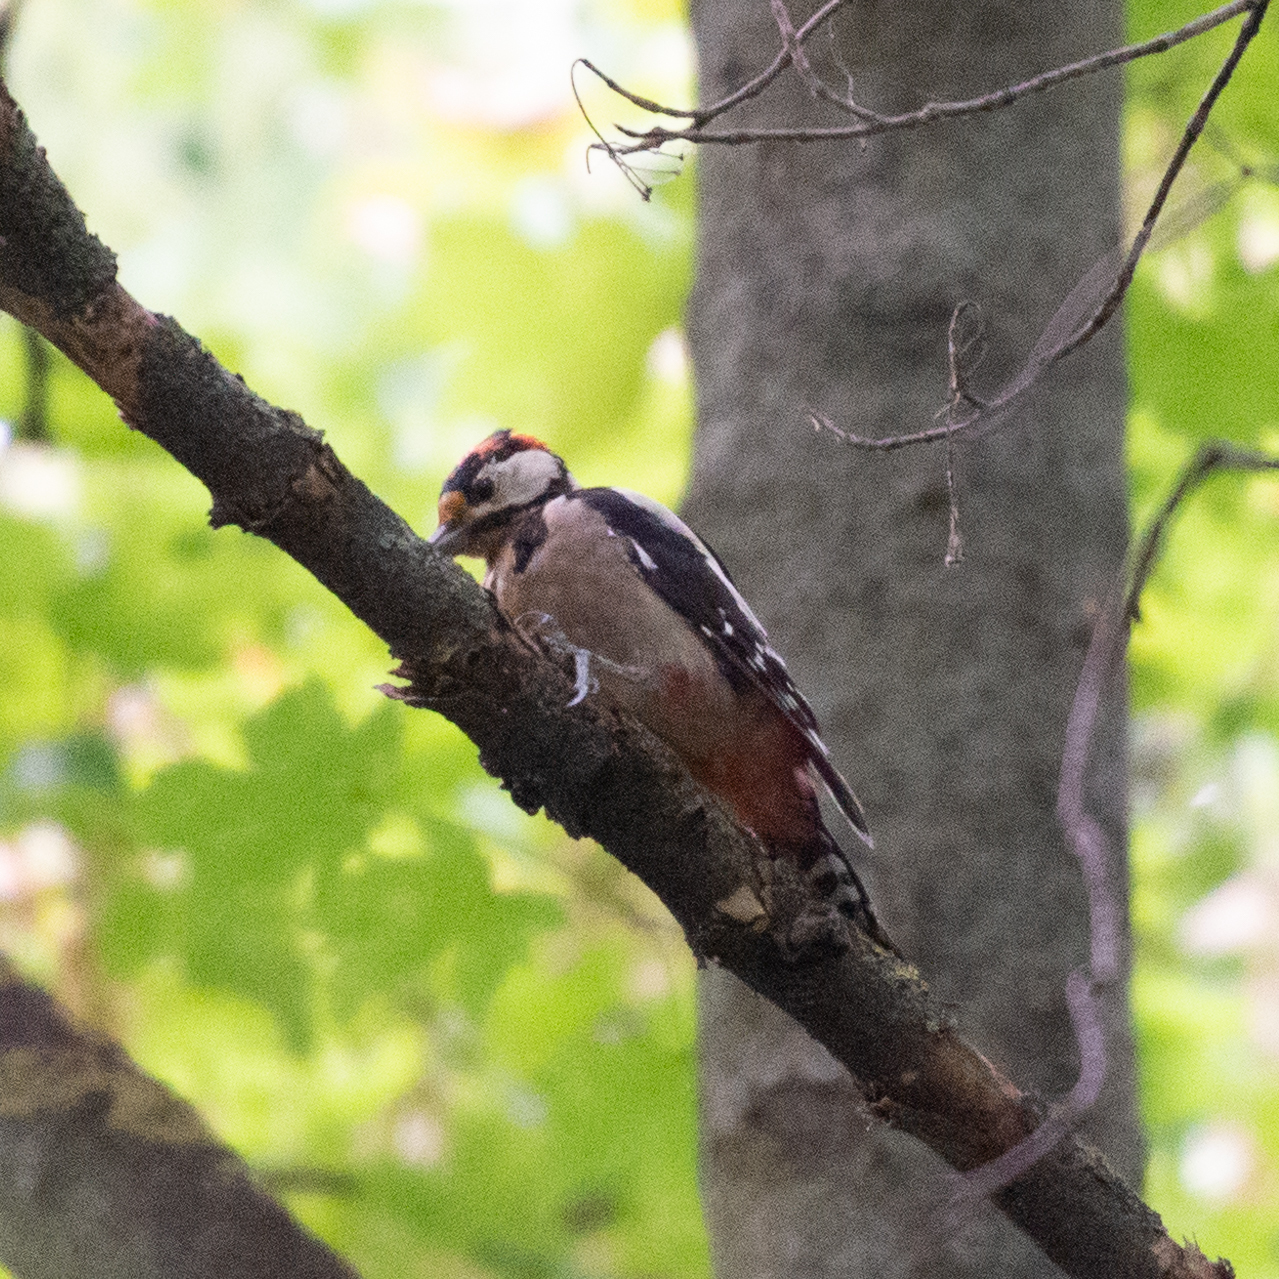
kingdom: Animalia
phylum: Chordata
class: Aves
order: Piciformes
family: Picidae
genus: Dendrocopos
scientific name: Dendrocopos major
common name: Great spotted woodpecker
